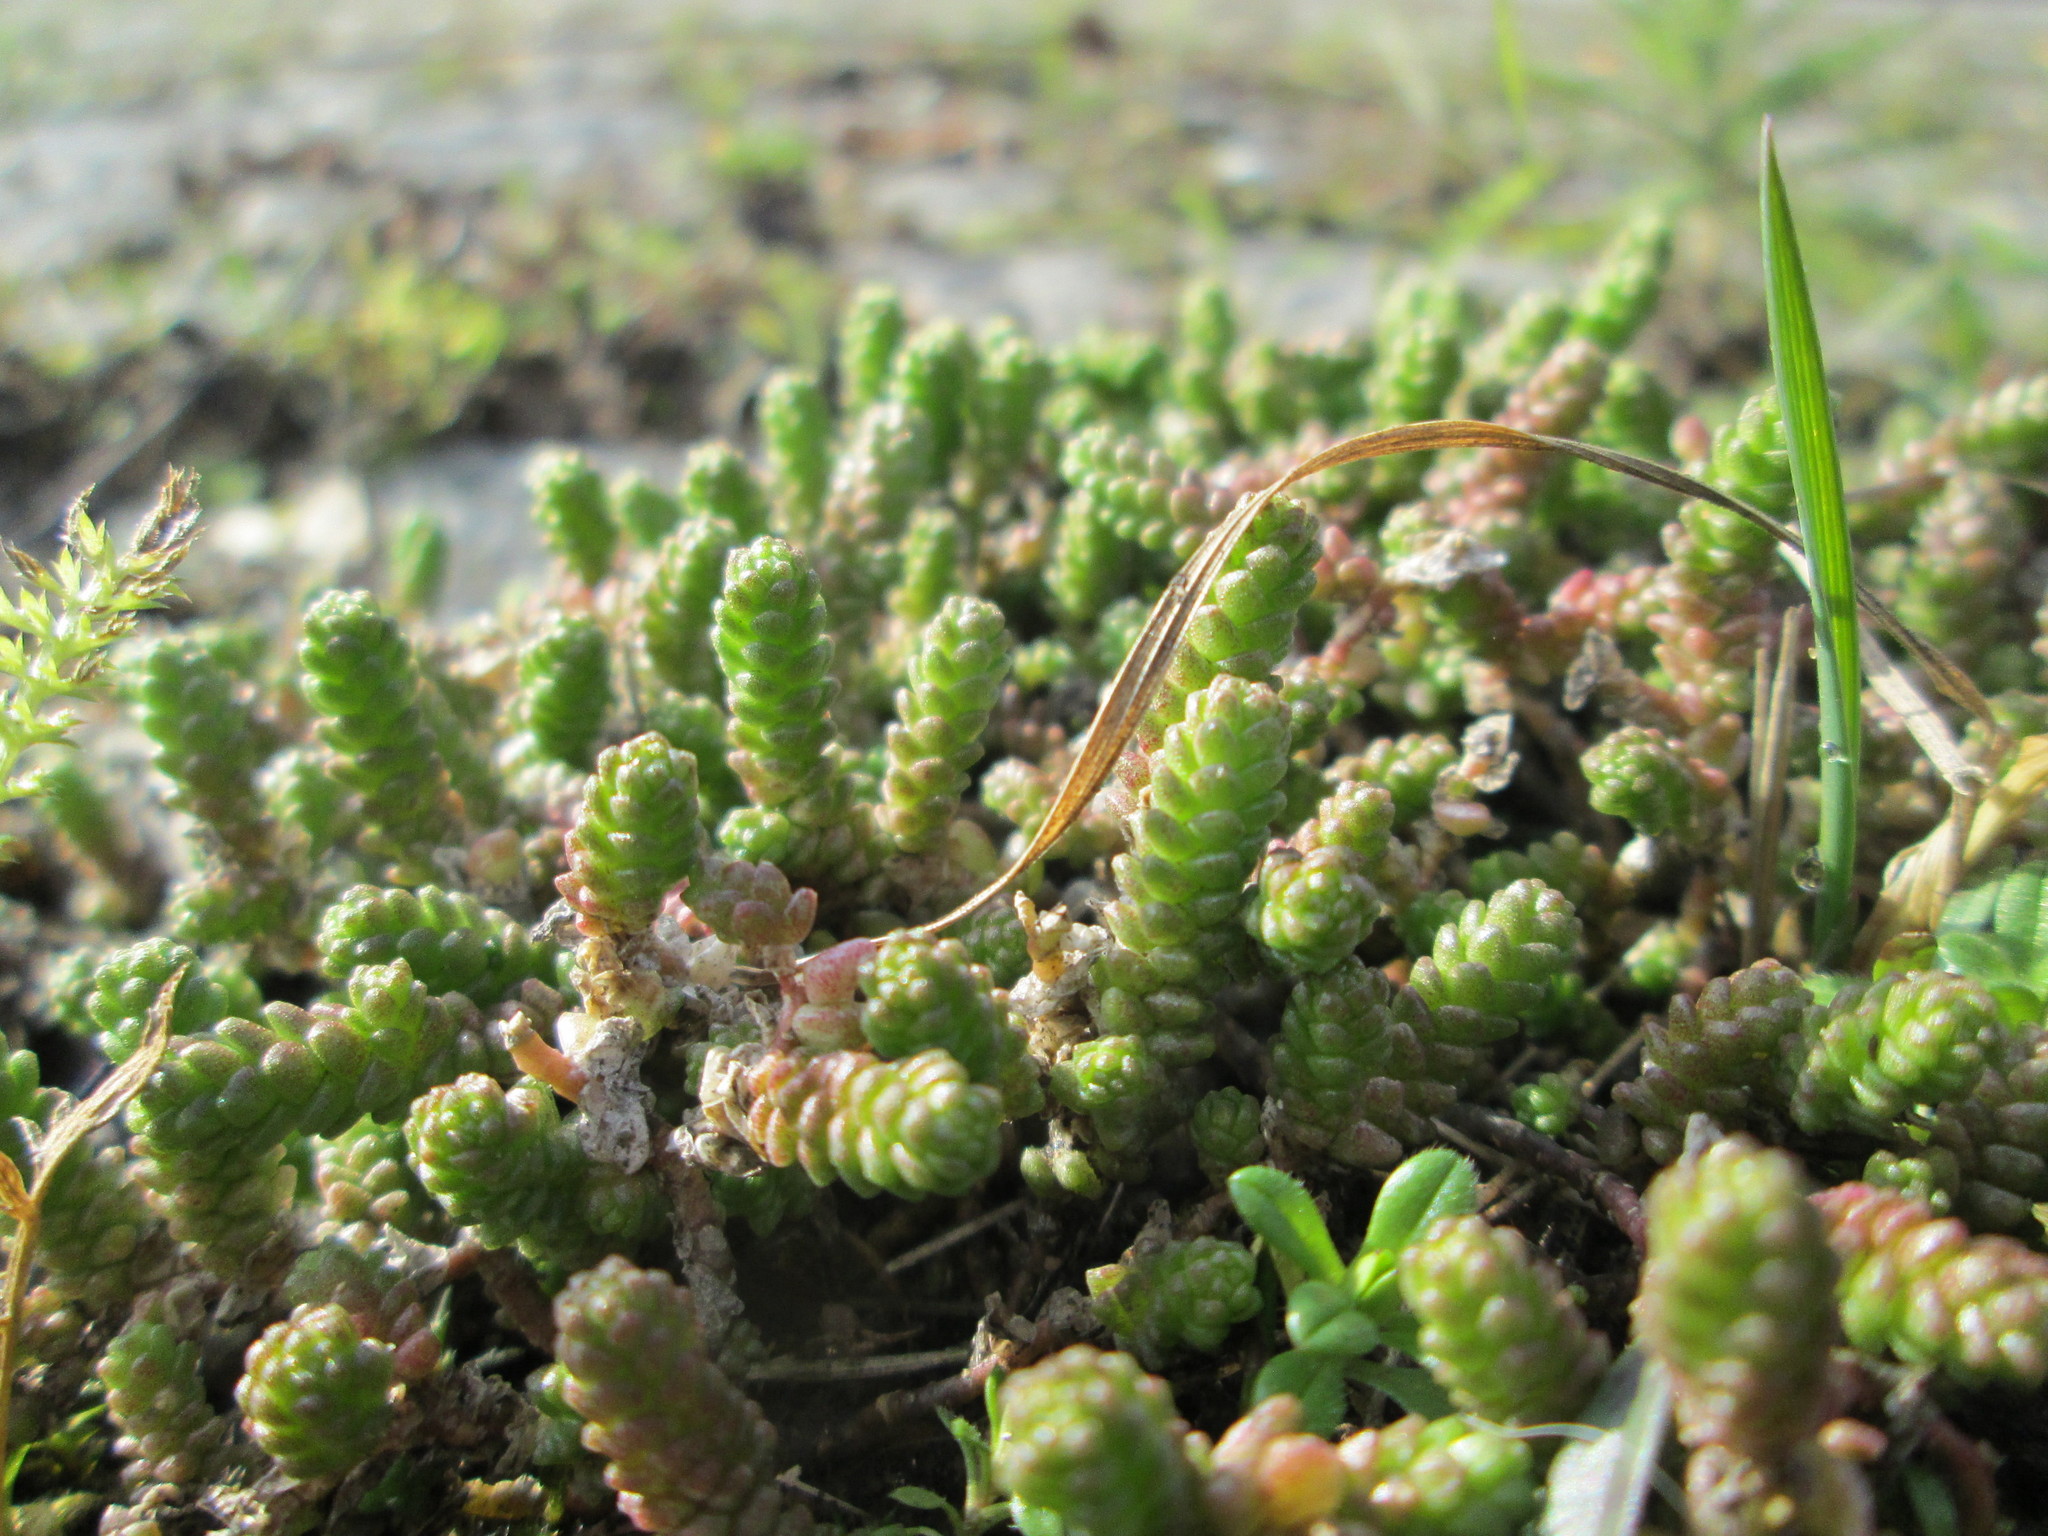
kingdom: Plantae
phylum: Tracheophyta
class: Magnoliopsida
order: Saxifragales
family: Crassulaceae
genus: Sedum
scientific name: Sedum acre
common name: Biting stonecrop
